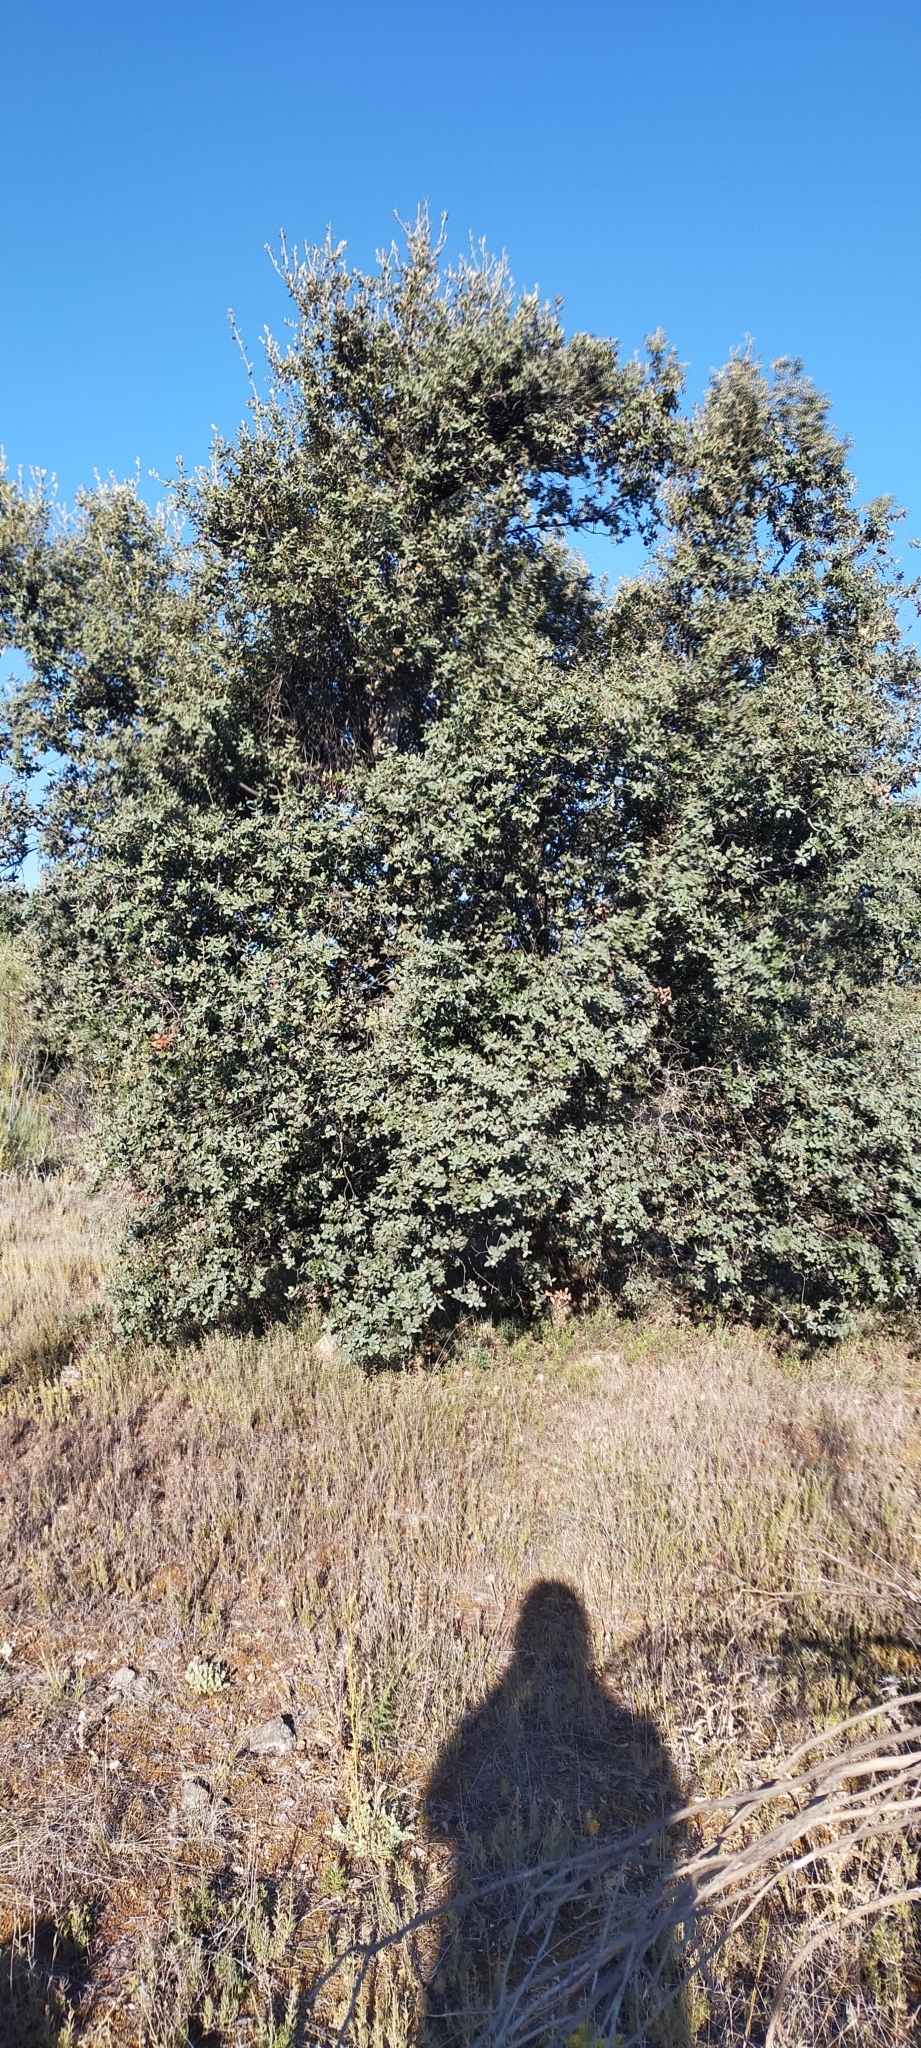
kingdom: Plantae
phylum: Tracheophyta
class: Magnoliopsida
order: Fagales
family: Fagaceae
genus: Quercus
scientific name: Quercus rotundifolia
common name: Holm oak
